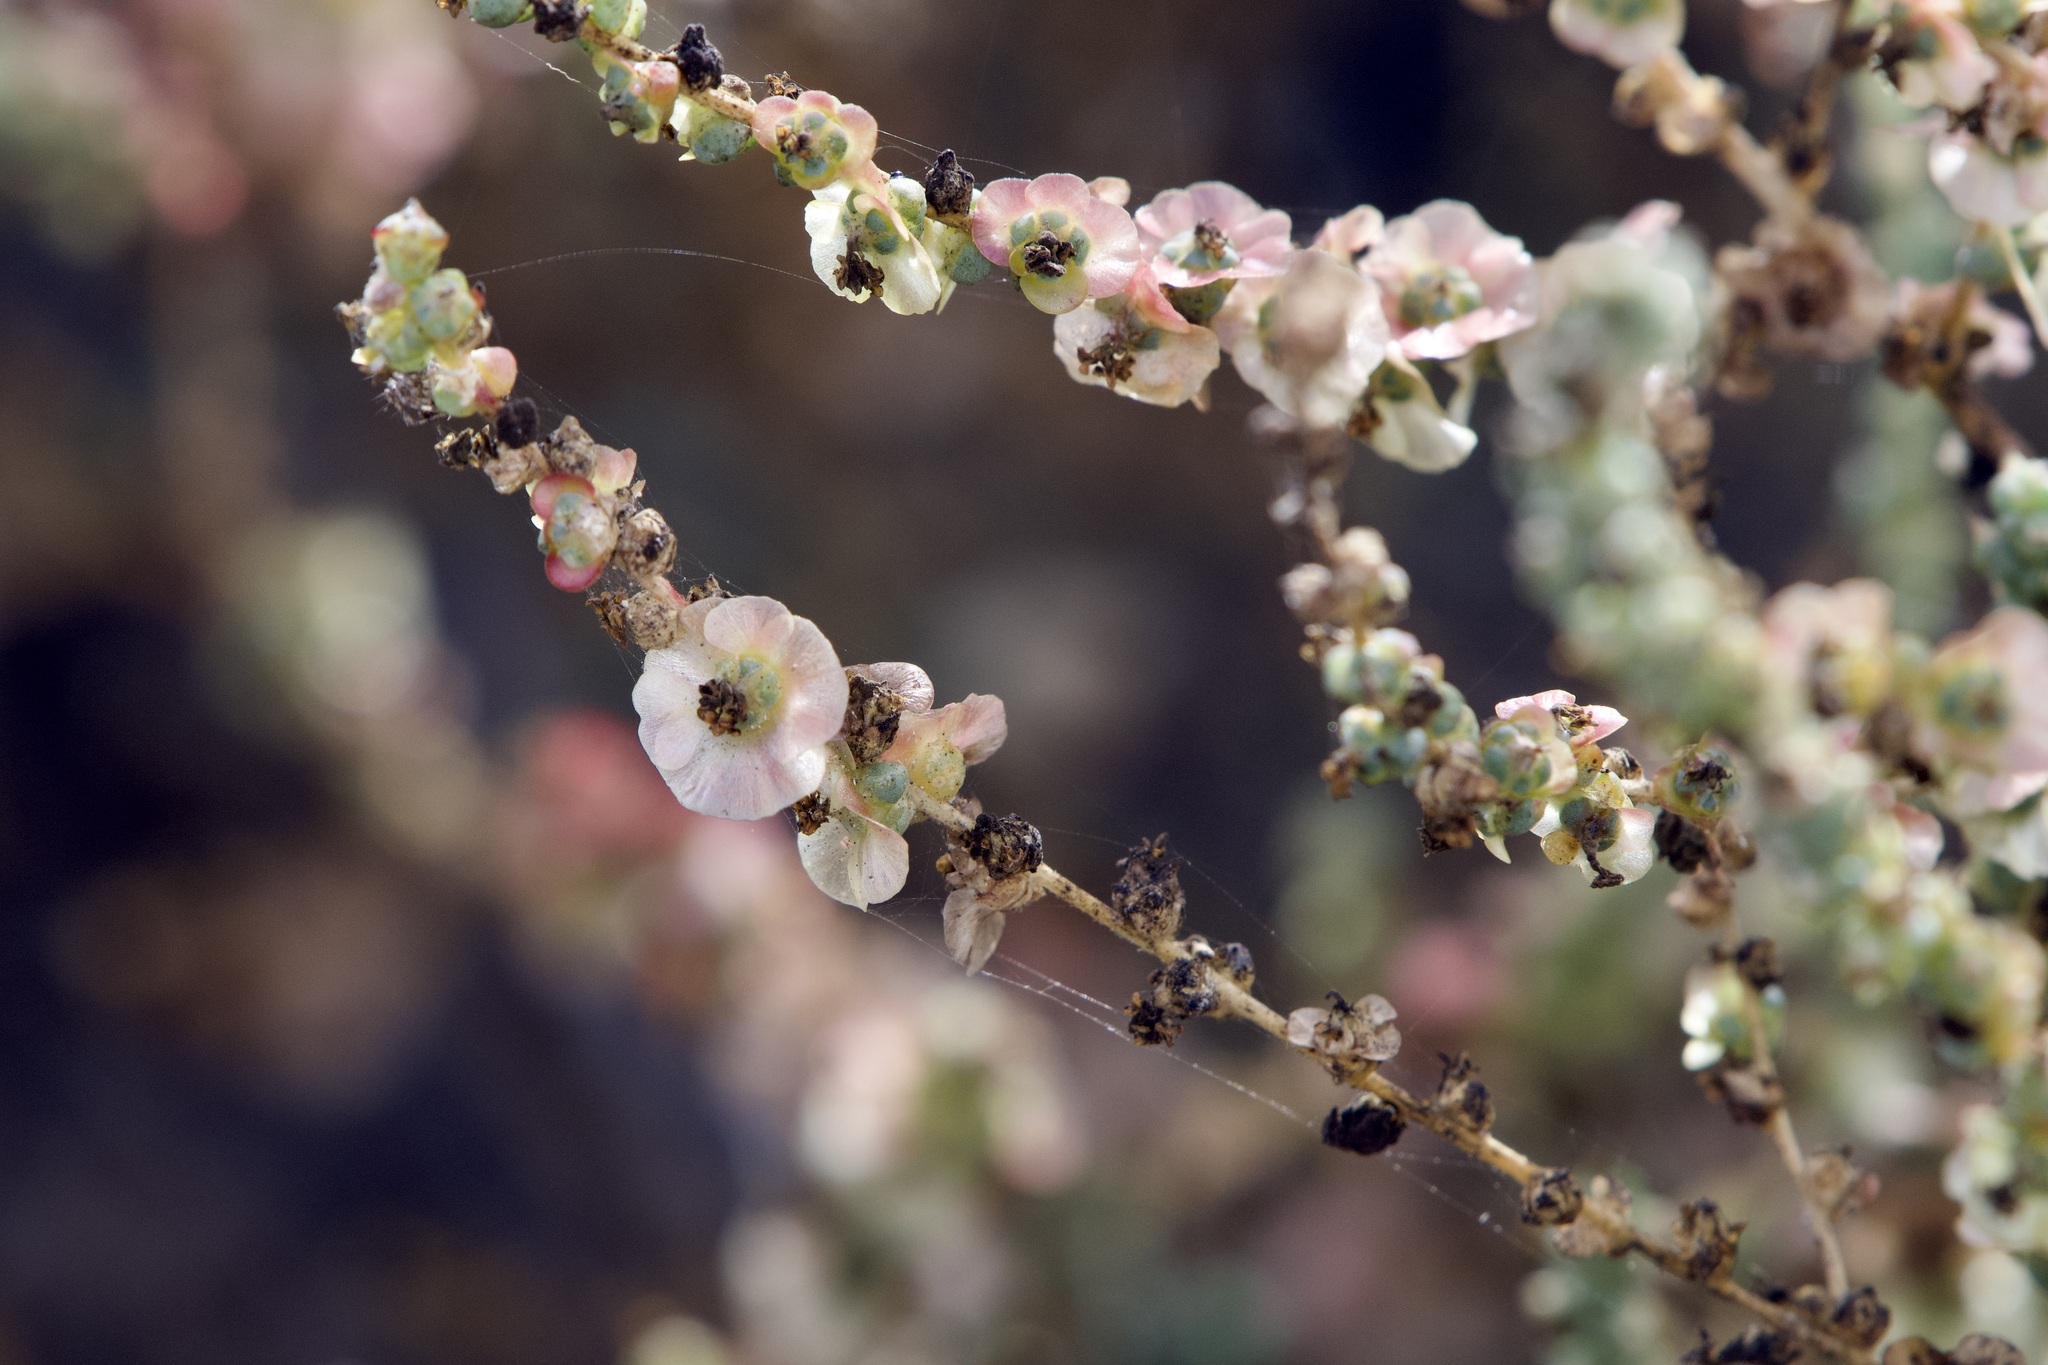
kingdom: Plantae
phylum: Tracheophyta
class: Magnoliopsida
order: Caryophyllales
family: Amaranthaceae
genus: Nitrosalsola
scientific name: Nitrosalsola vermiculata
